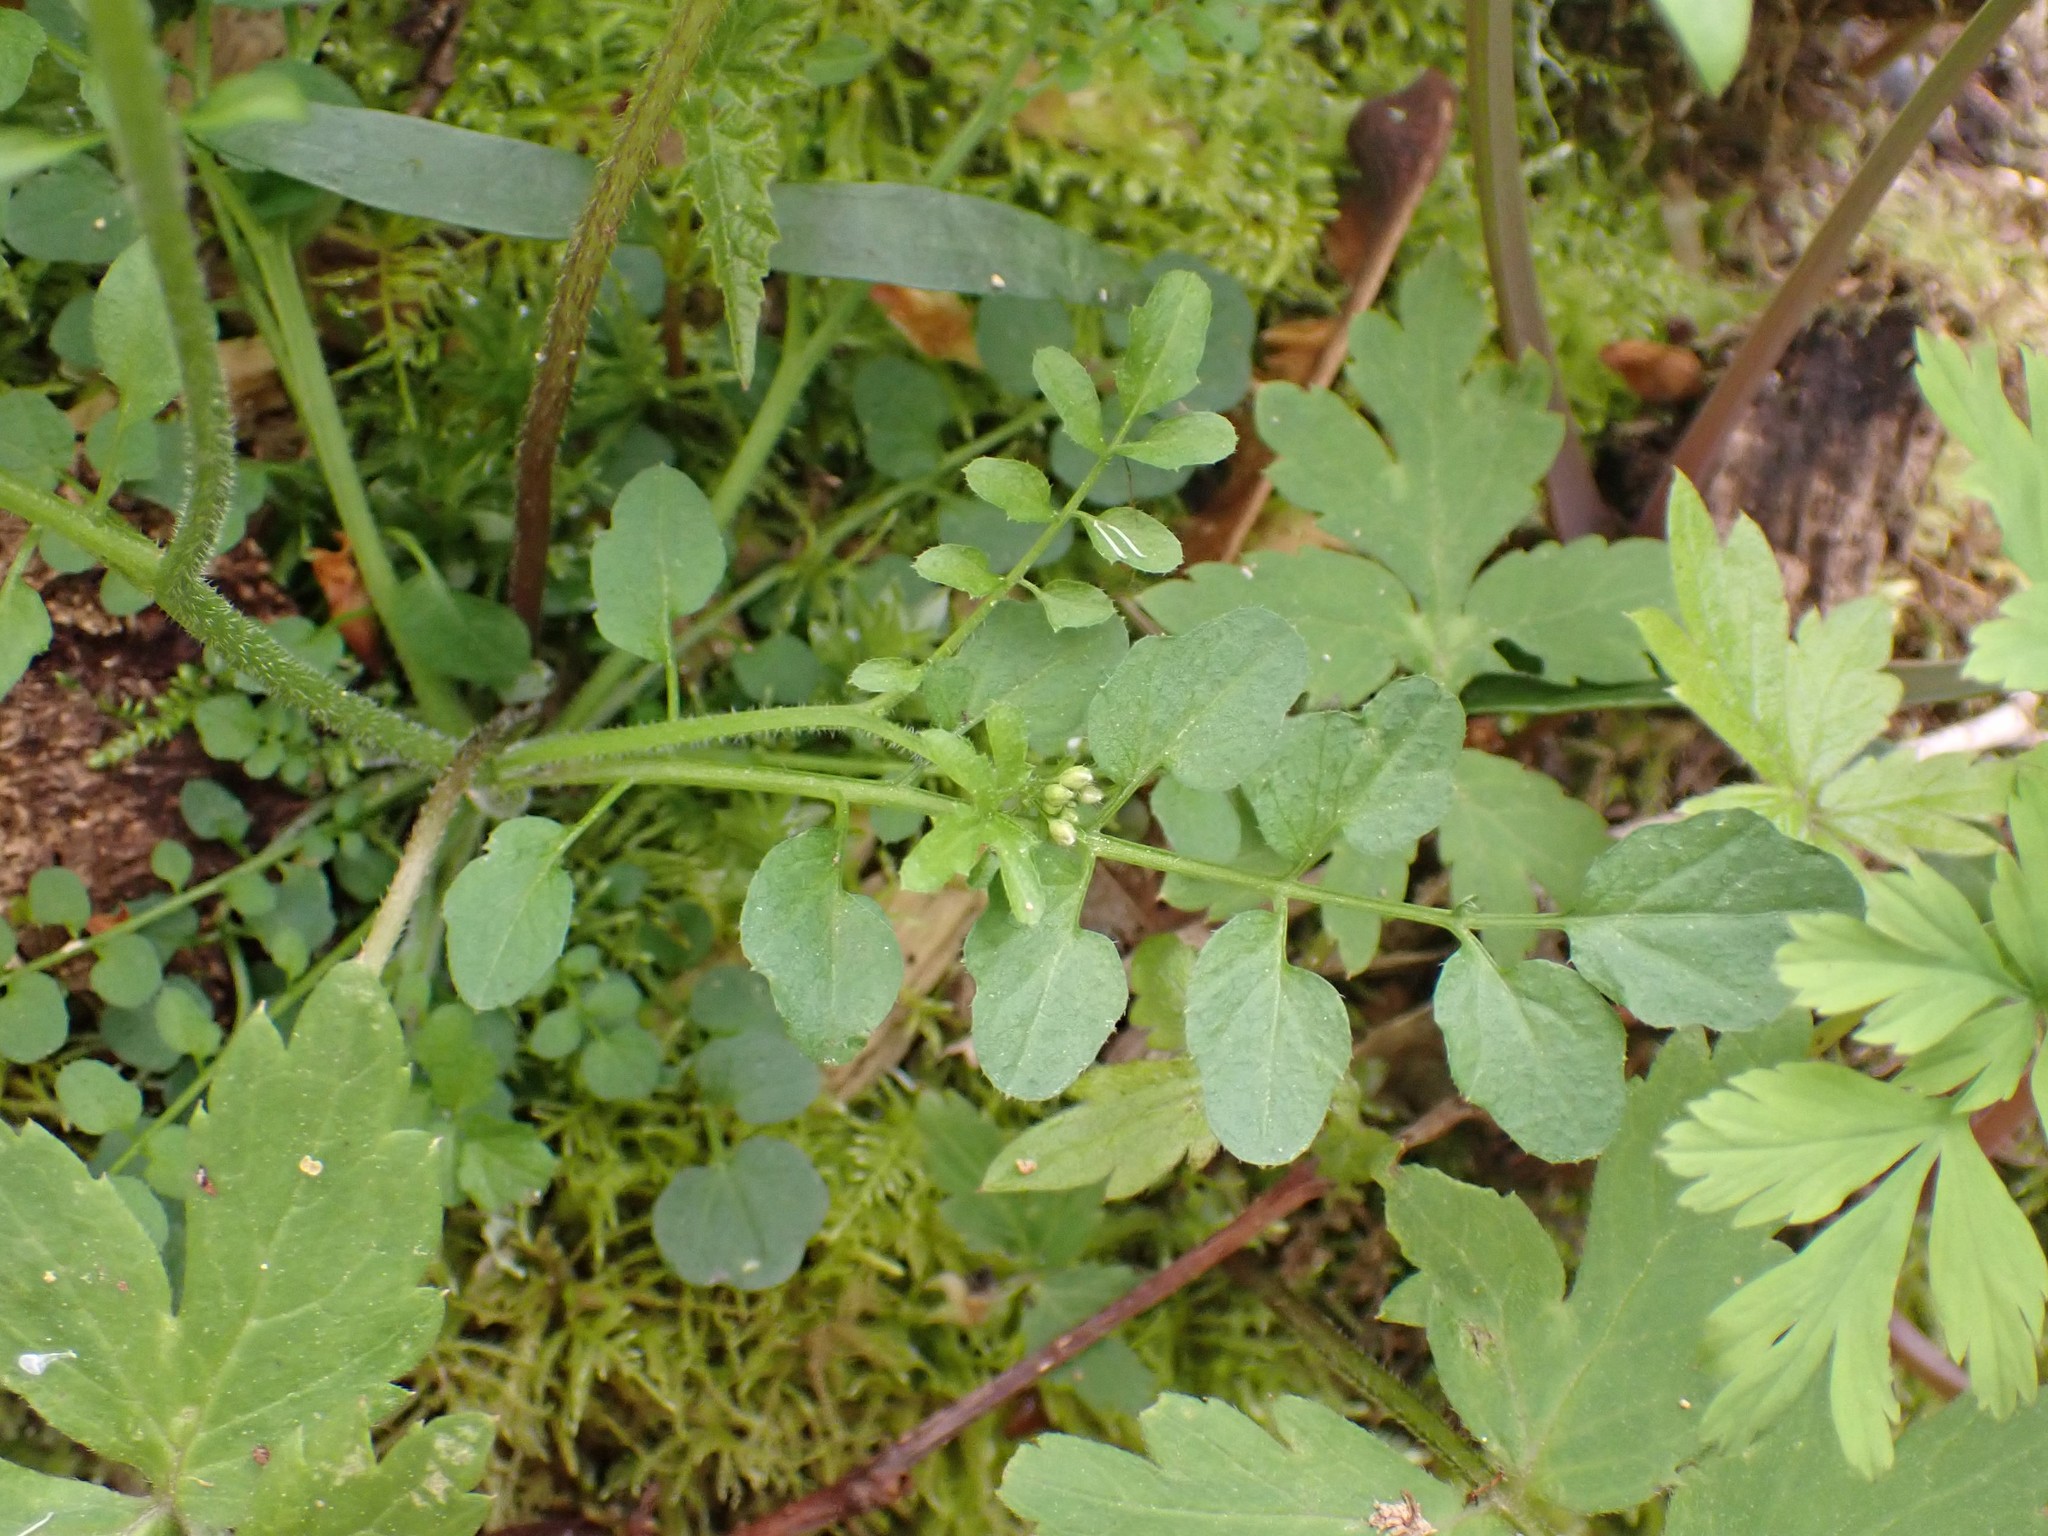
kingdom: Plantae
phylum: Tracheophyta
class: Magnoliopsida
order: Brassicales
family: Brassicaceae
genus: Cardamine
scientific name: Cardamine flexuosa
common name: Woodland bittercress
